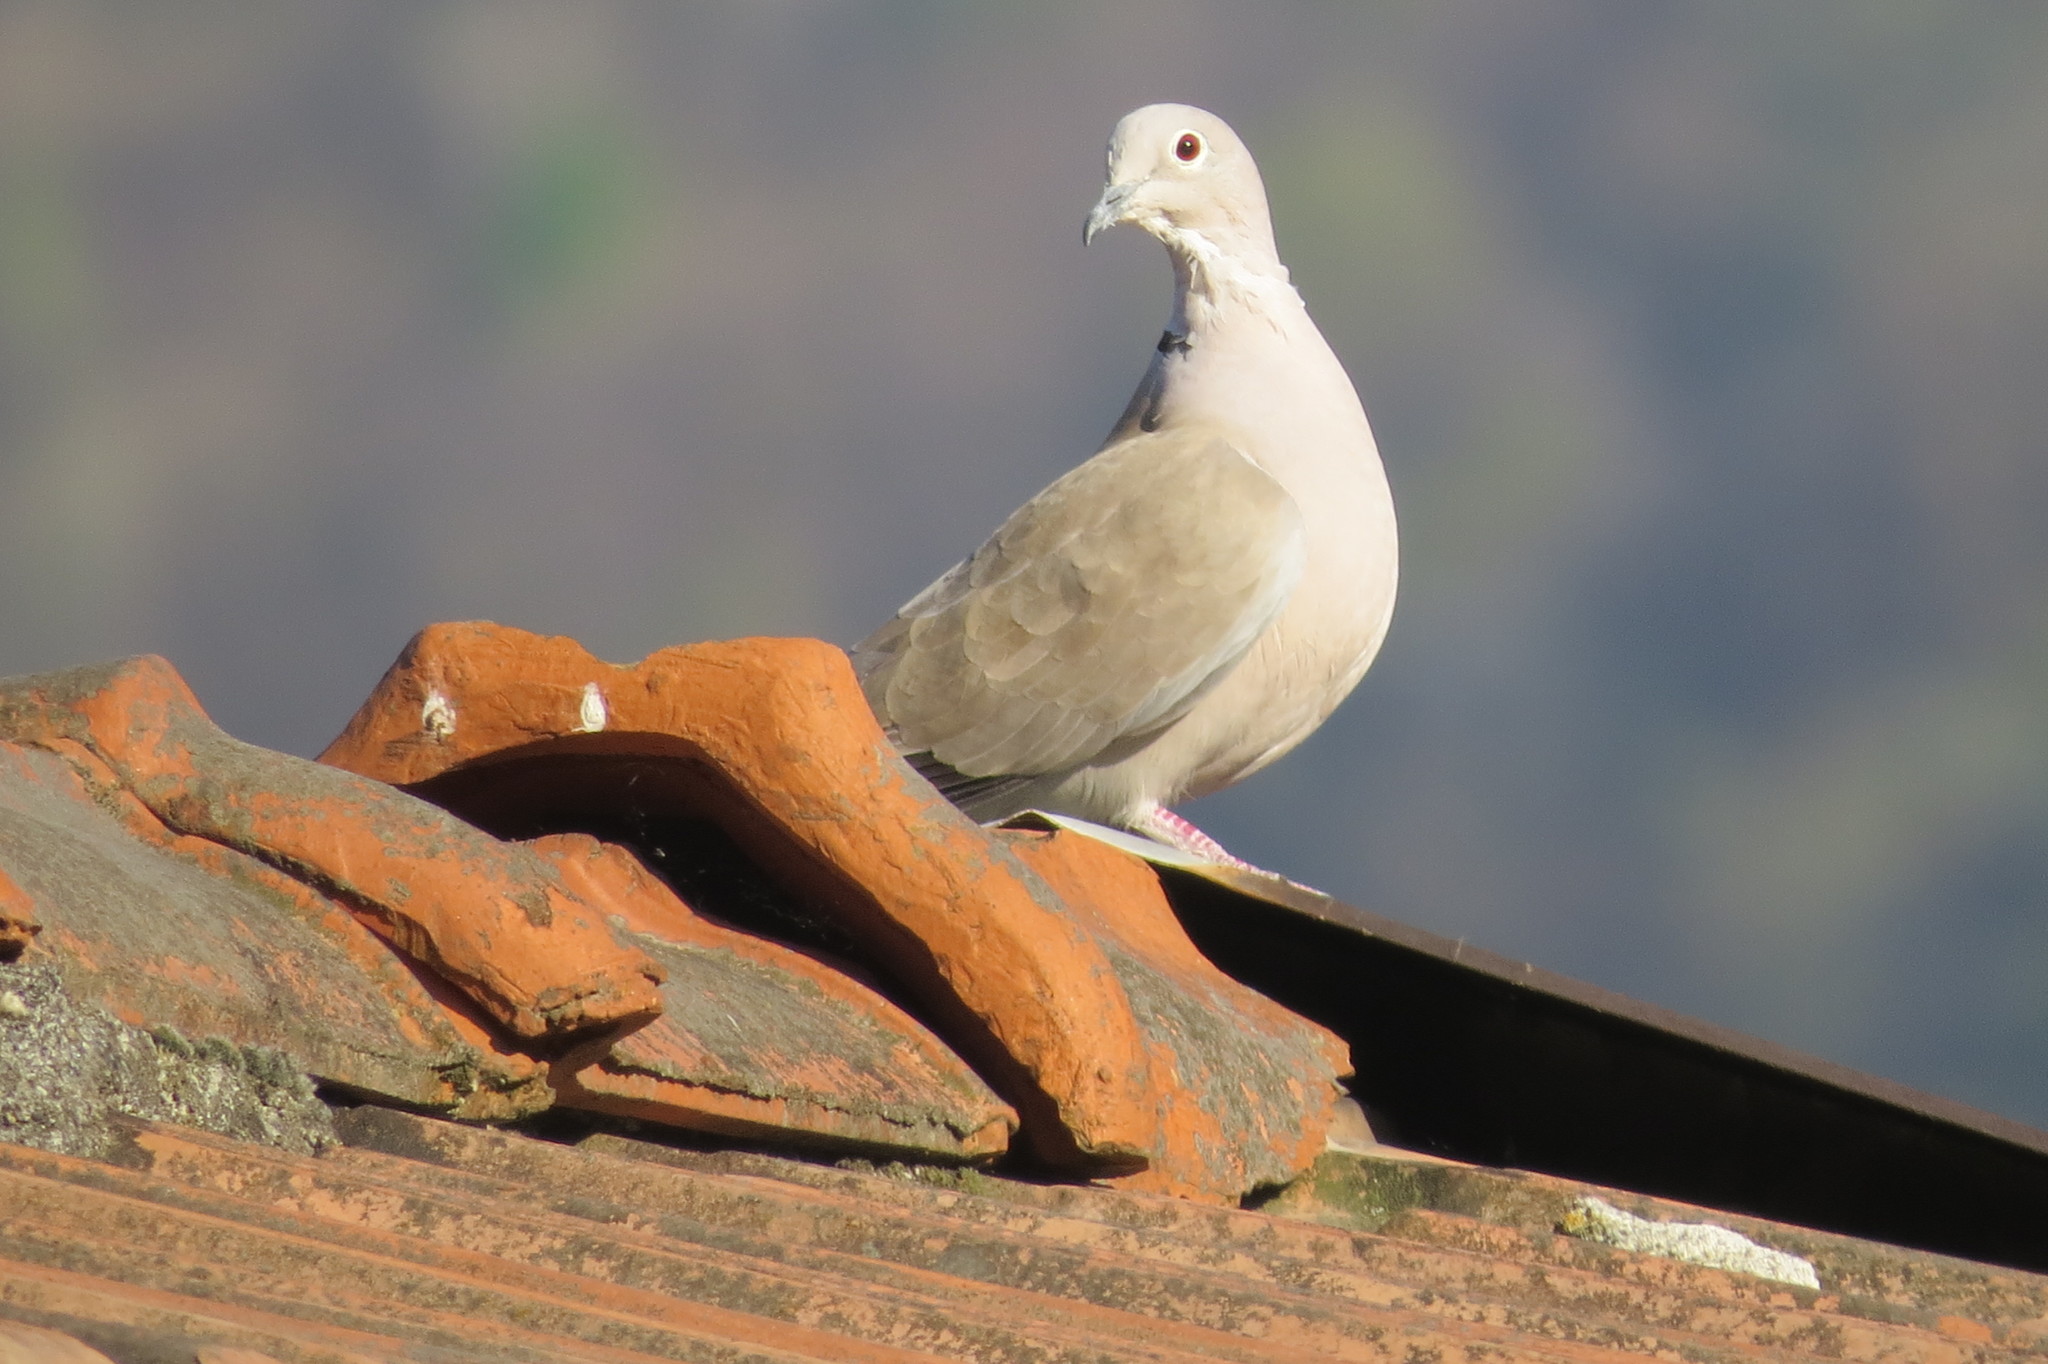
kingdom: Animalia
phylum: Chordata
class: Aves
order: Columbiformes
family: Columbidae
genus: Streptopelia
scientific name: Streptopelia decaocto
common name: Eurasian collared dove
